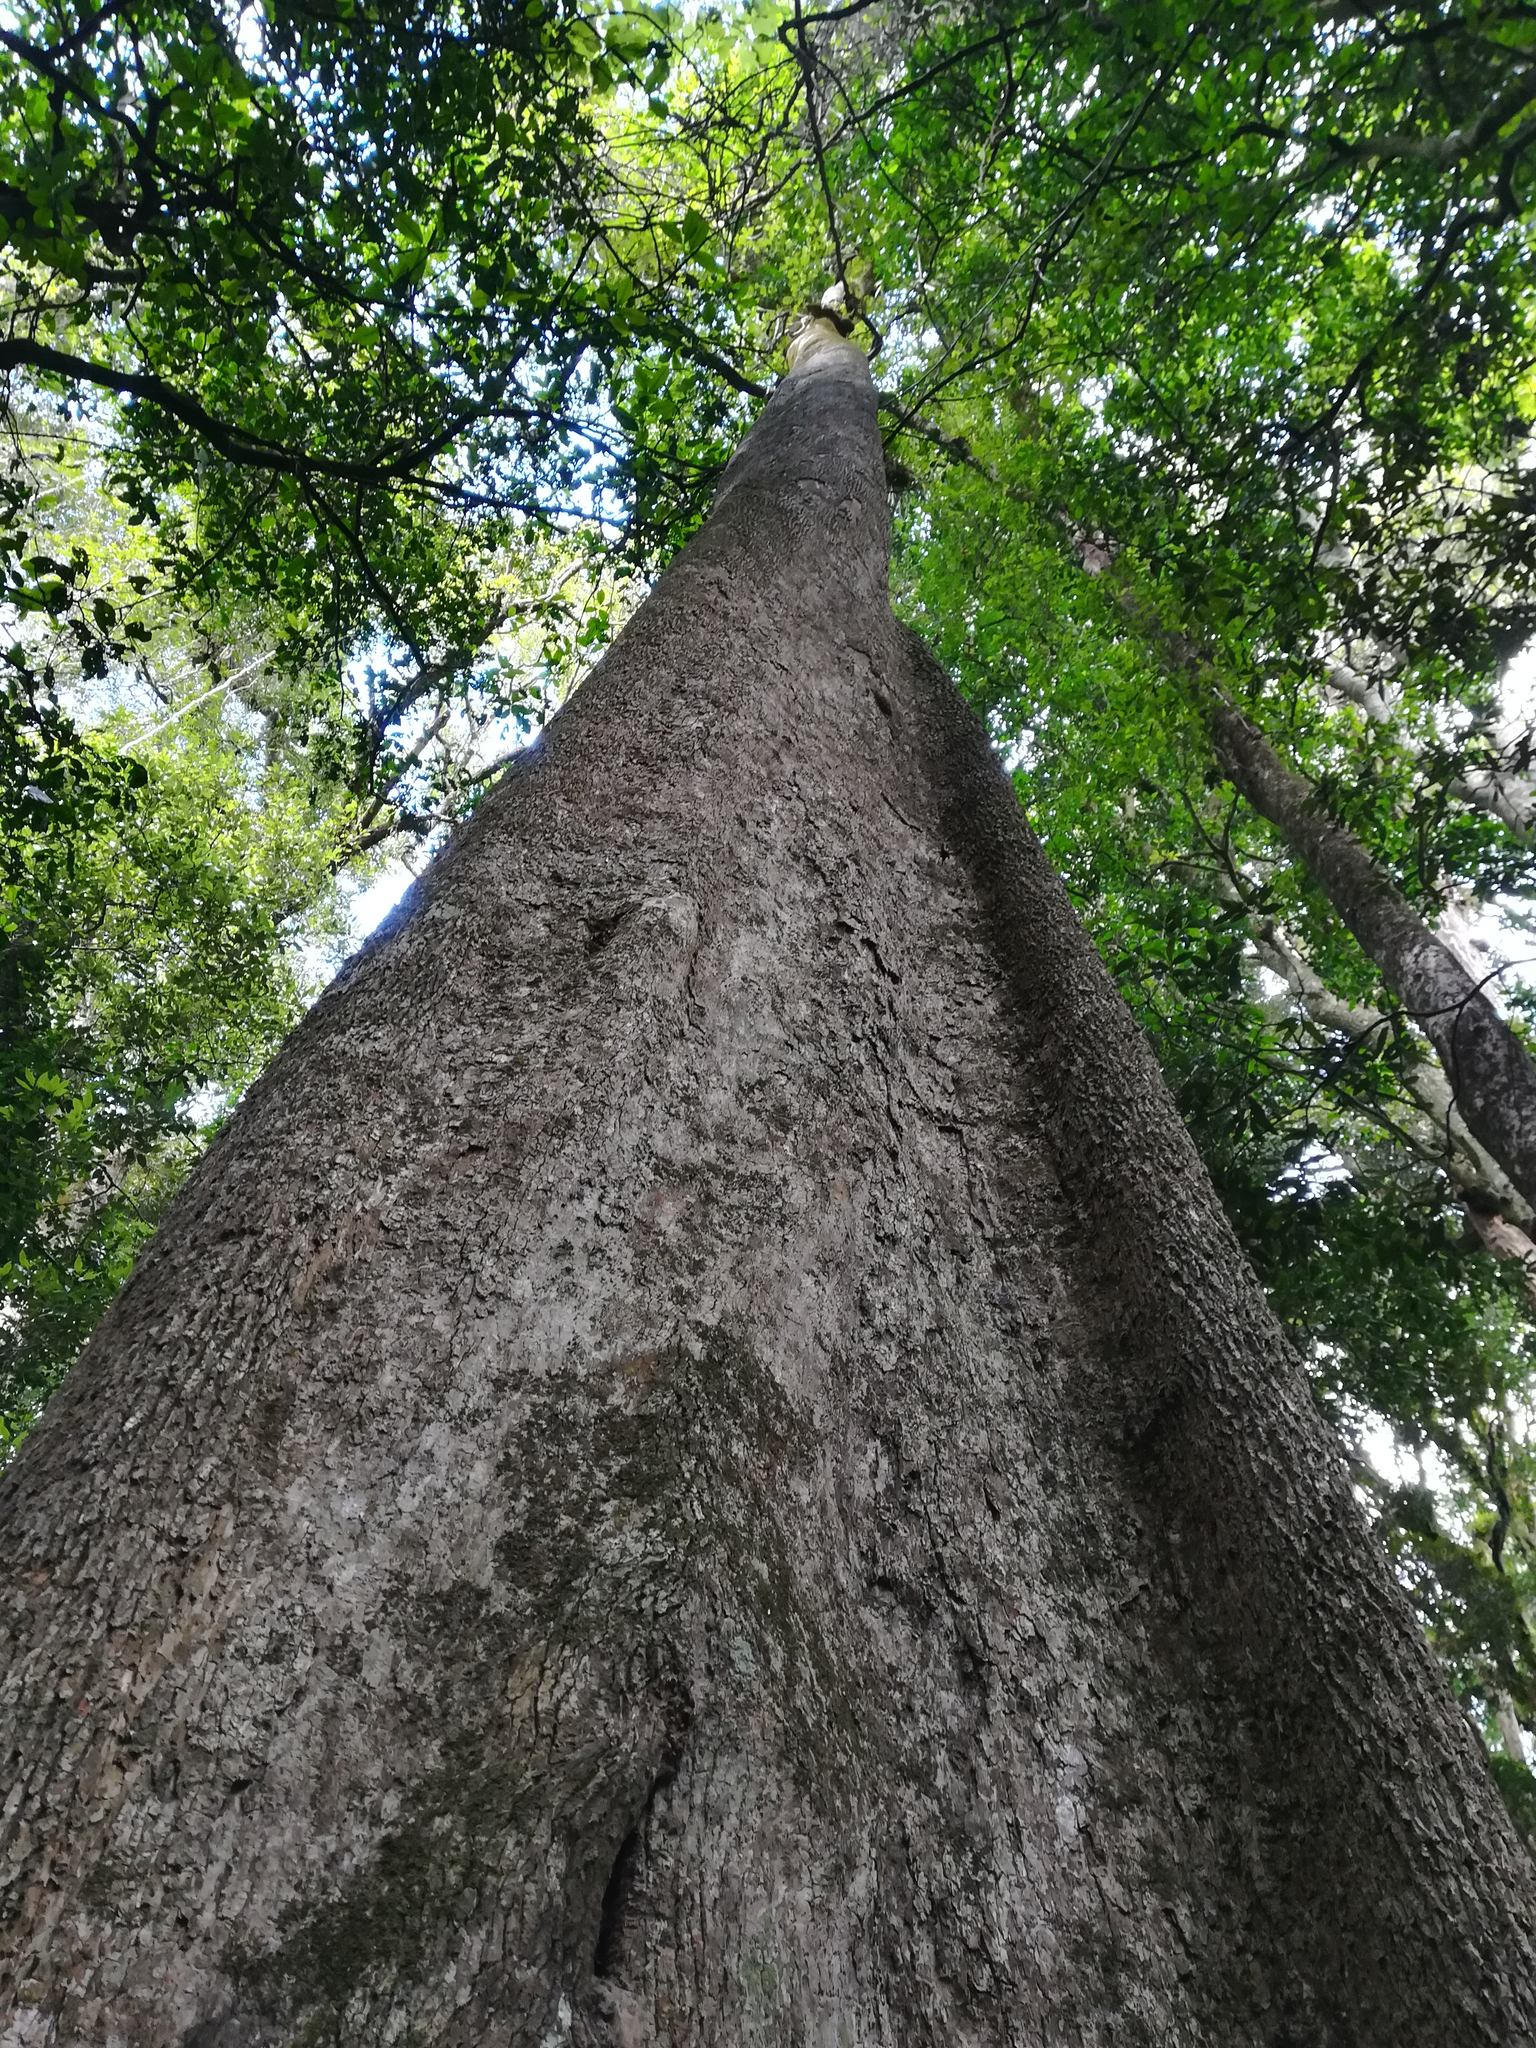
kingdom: Plantae
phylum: Tracheophyta
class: Magnoliopsida
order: Cardiopteridales
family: Cardiopteridaceae
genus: Citronella
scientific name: Citronella moorei
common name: Churnwood
